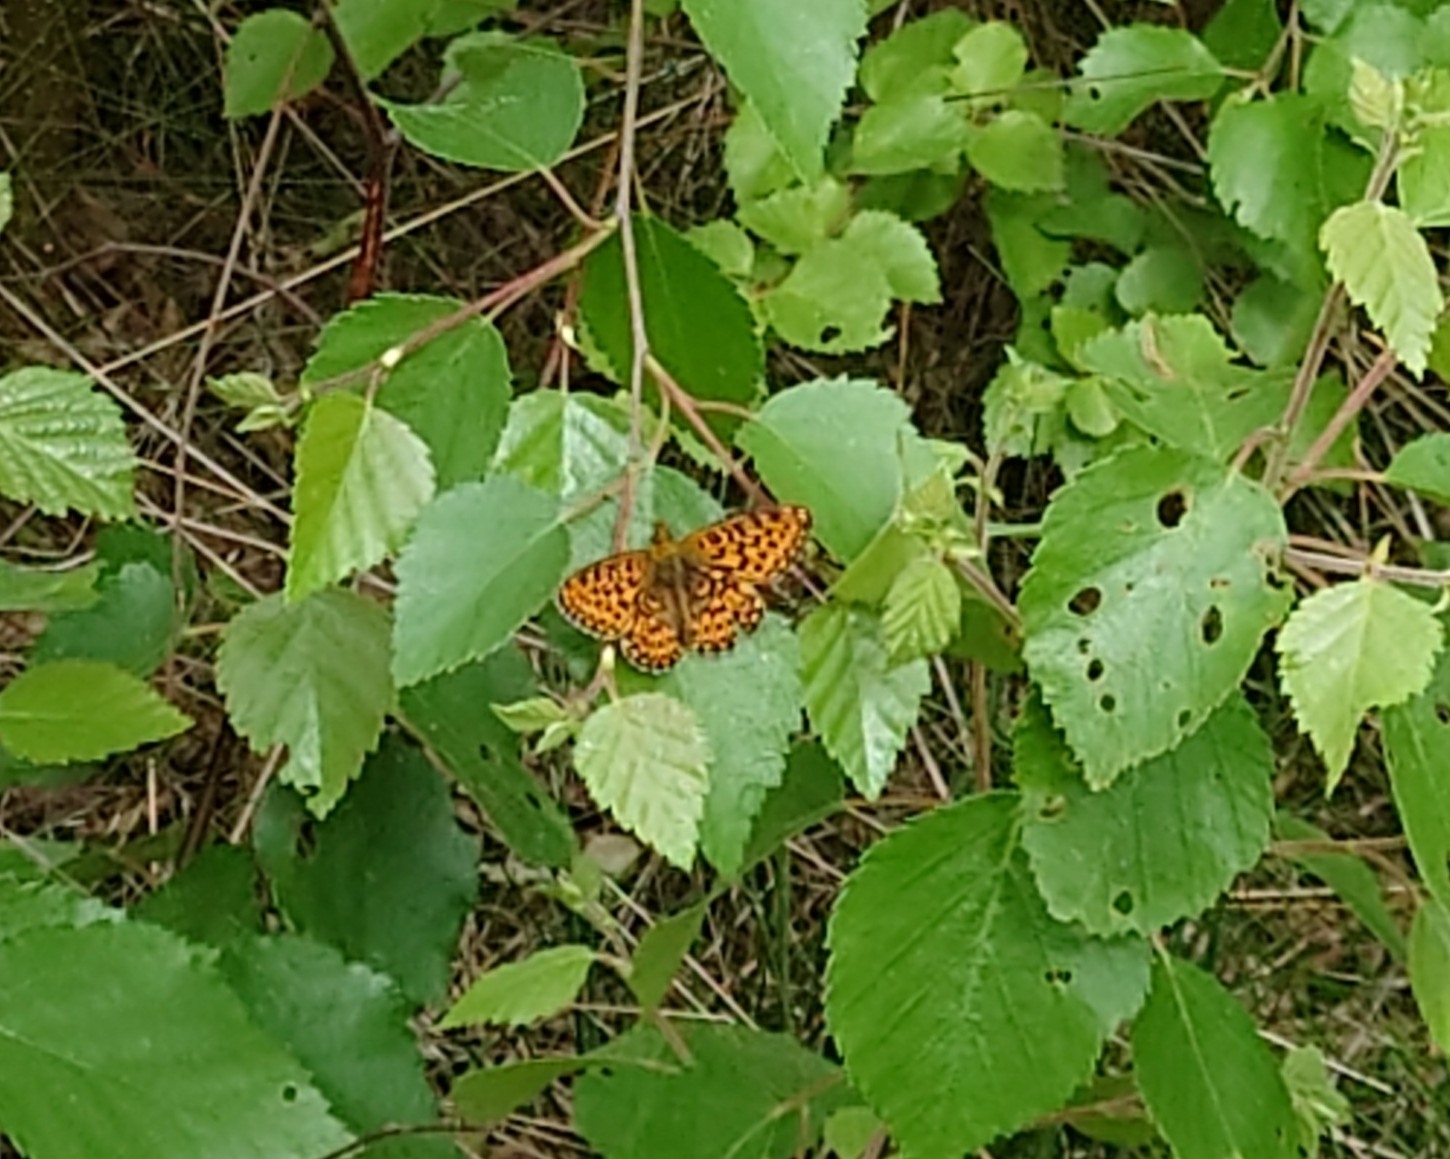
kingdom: Animalia
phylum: Arthropoda
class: Insecta
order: Lepidoptera
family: Nymphalidae
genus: Clossiana
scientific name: Clossiana euphrosyne
